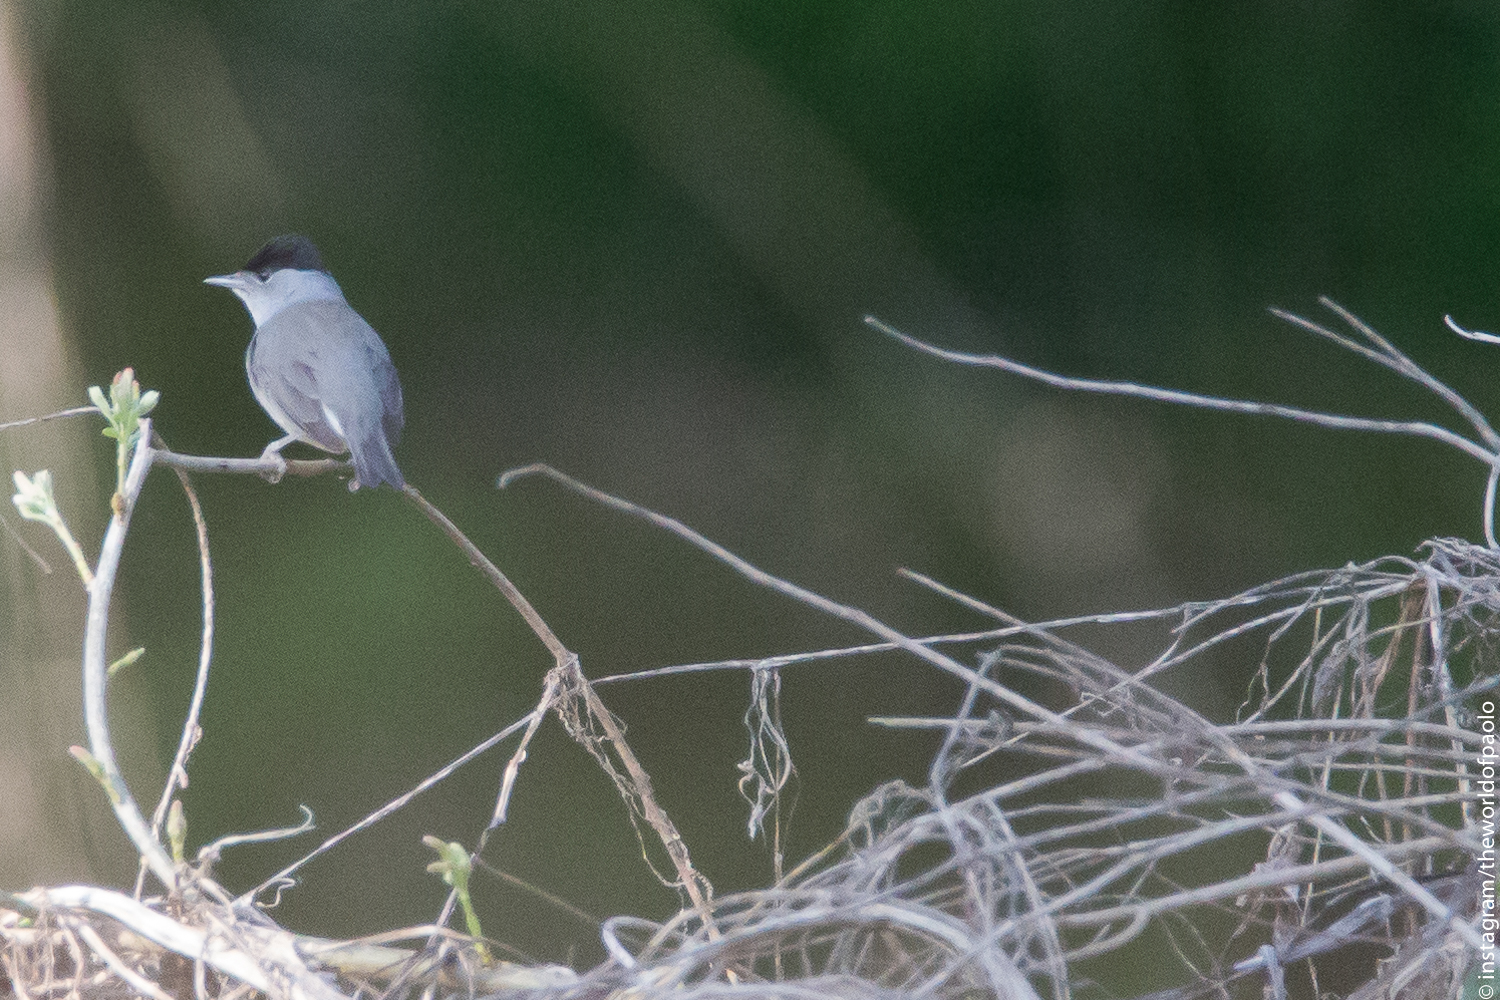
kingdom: Animalia
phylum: Chordata
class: Aves
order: Passeriformes
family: Sylviidae
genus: Sylvia
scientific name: Sylvia atricapilla
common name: Eurasian blackcap
